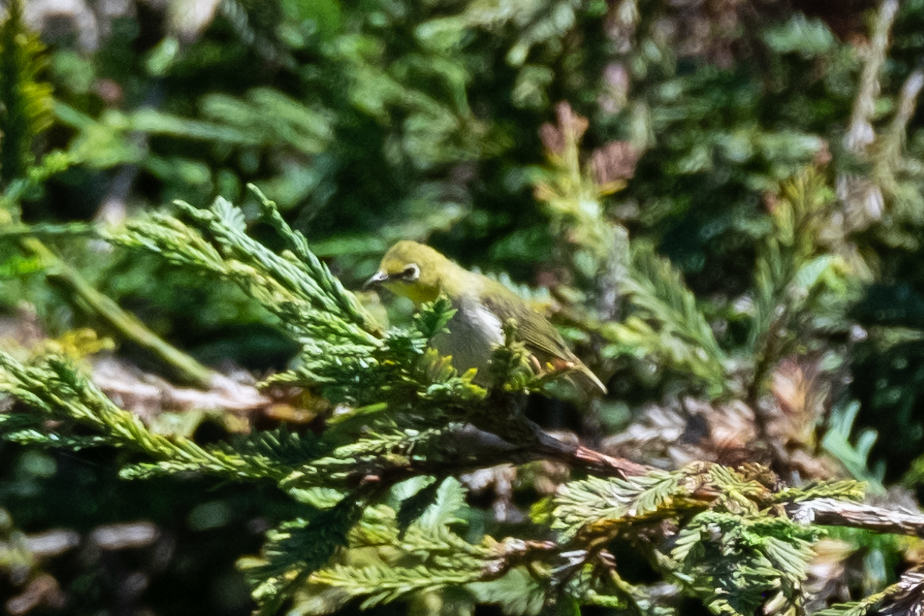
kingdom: Animalia
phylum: Chordata
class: Aves
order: Passeriformes
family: Zosteropidae
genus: Zosterops
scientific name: Zosterops simplex
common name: Swinhoe's white-eye
